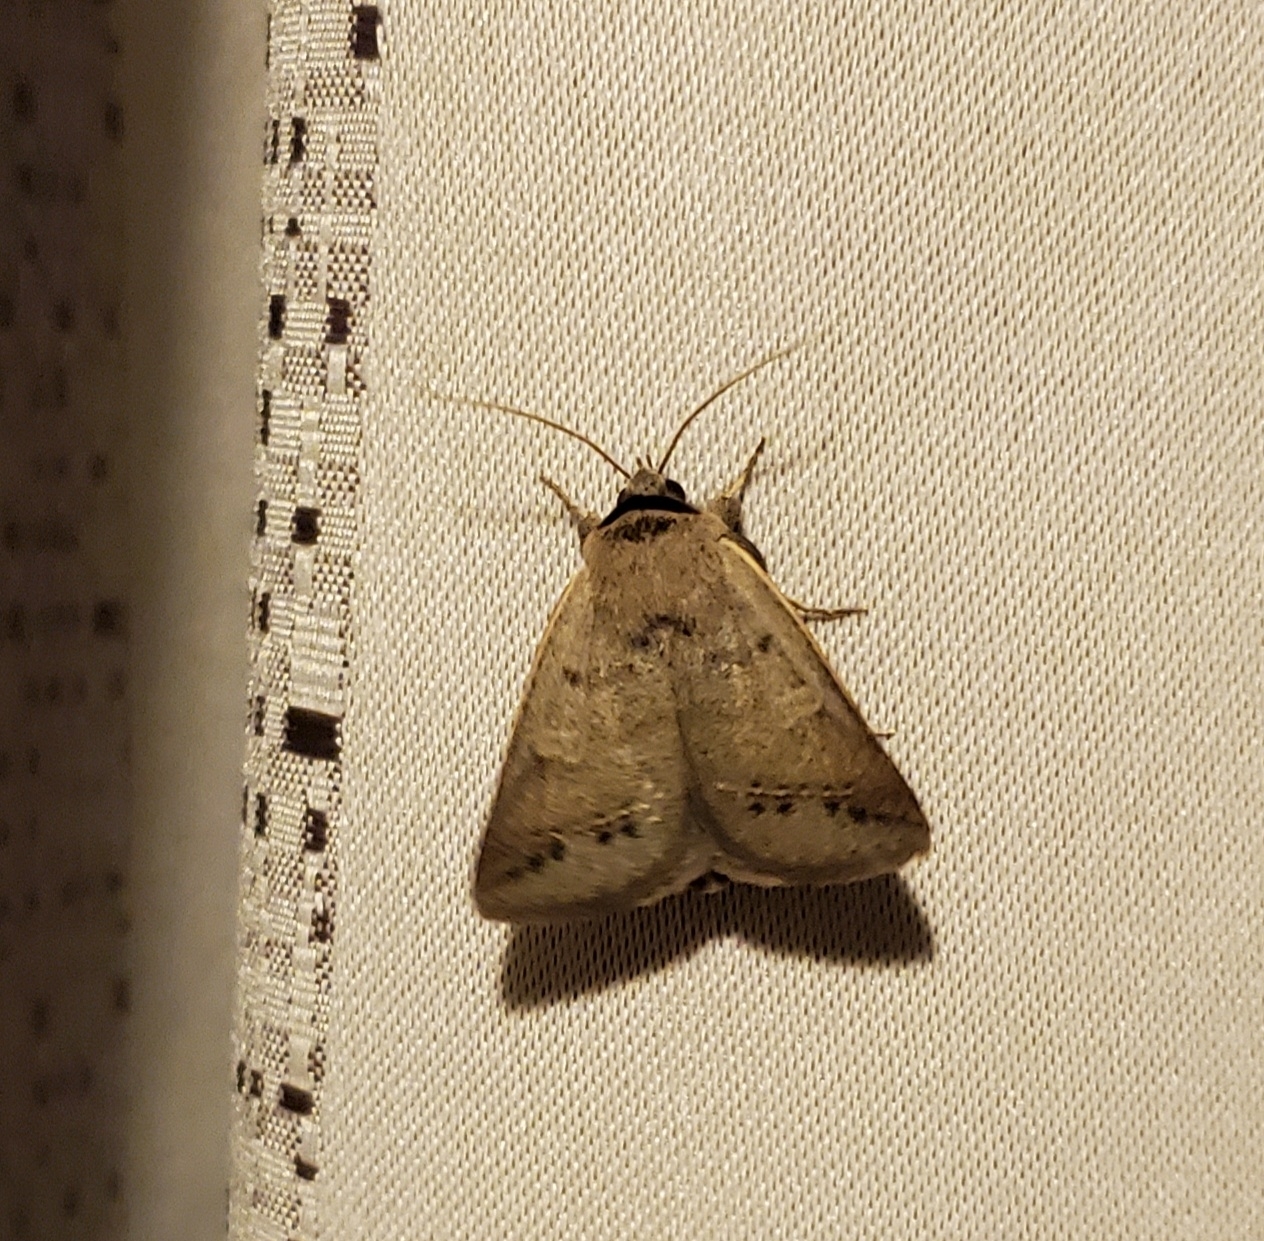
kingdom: Animalia
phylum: Arthropoda
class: Insecta
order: Lepidoptera
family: Erebidae
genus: Pantydia
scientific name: Pantydia sparsa
